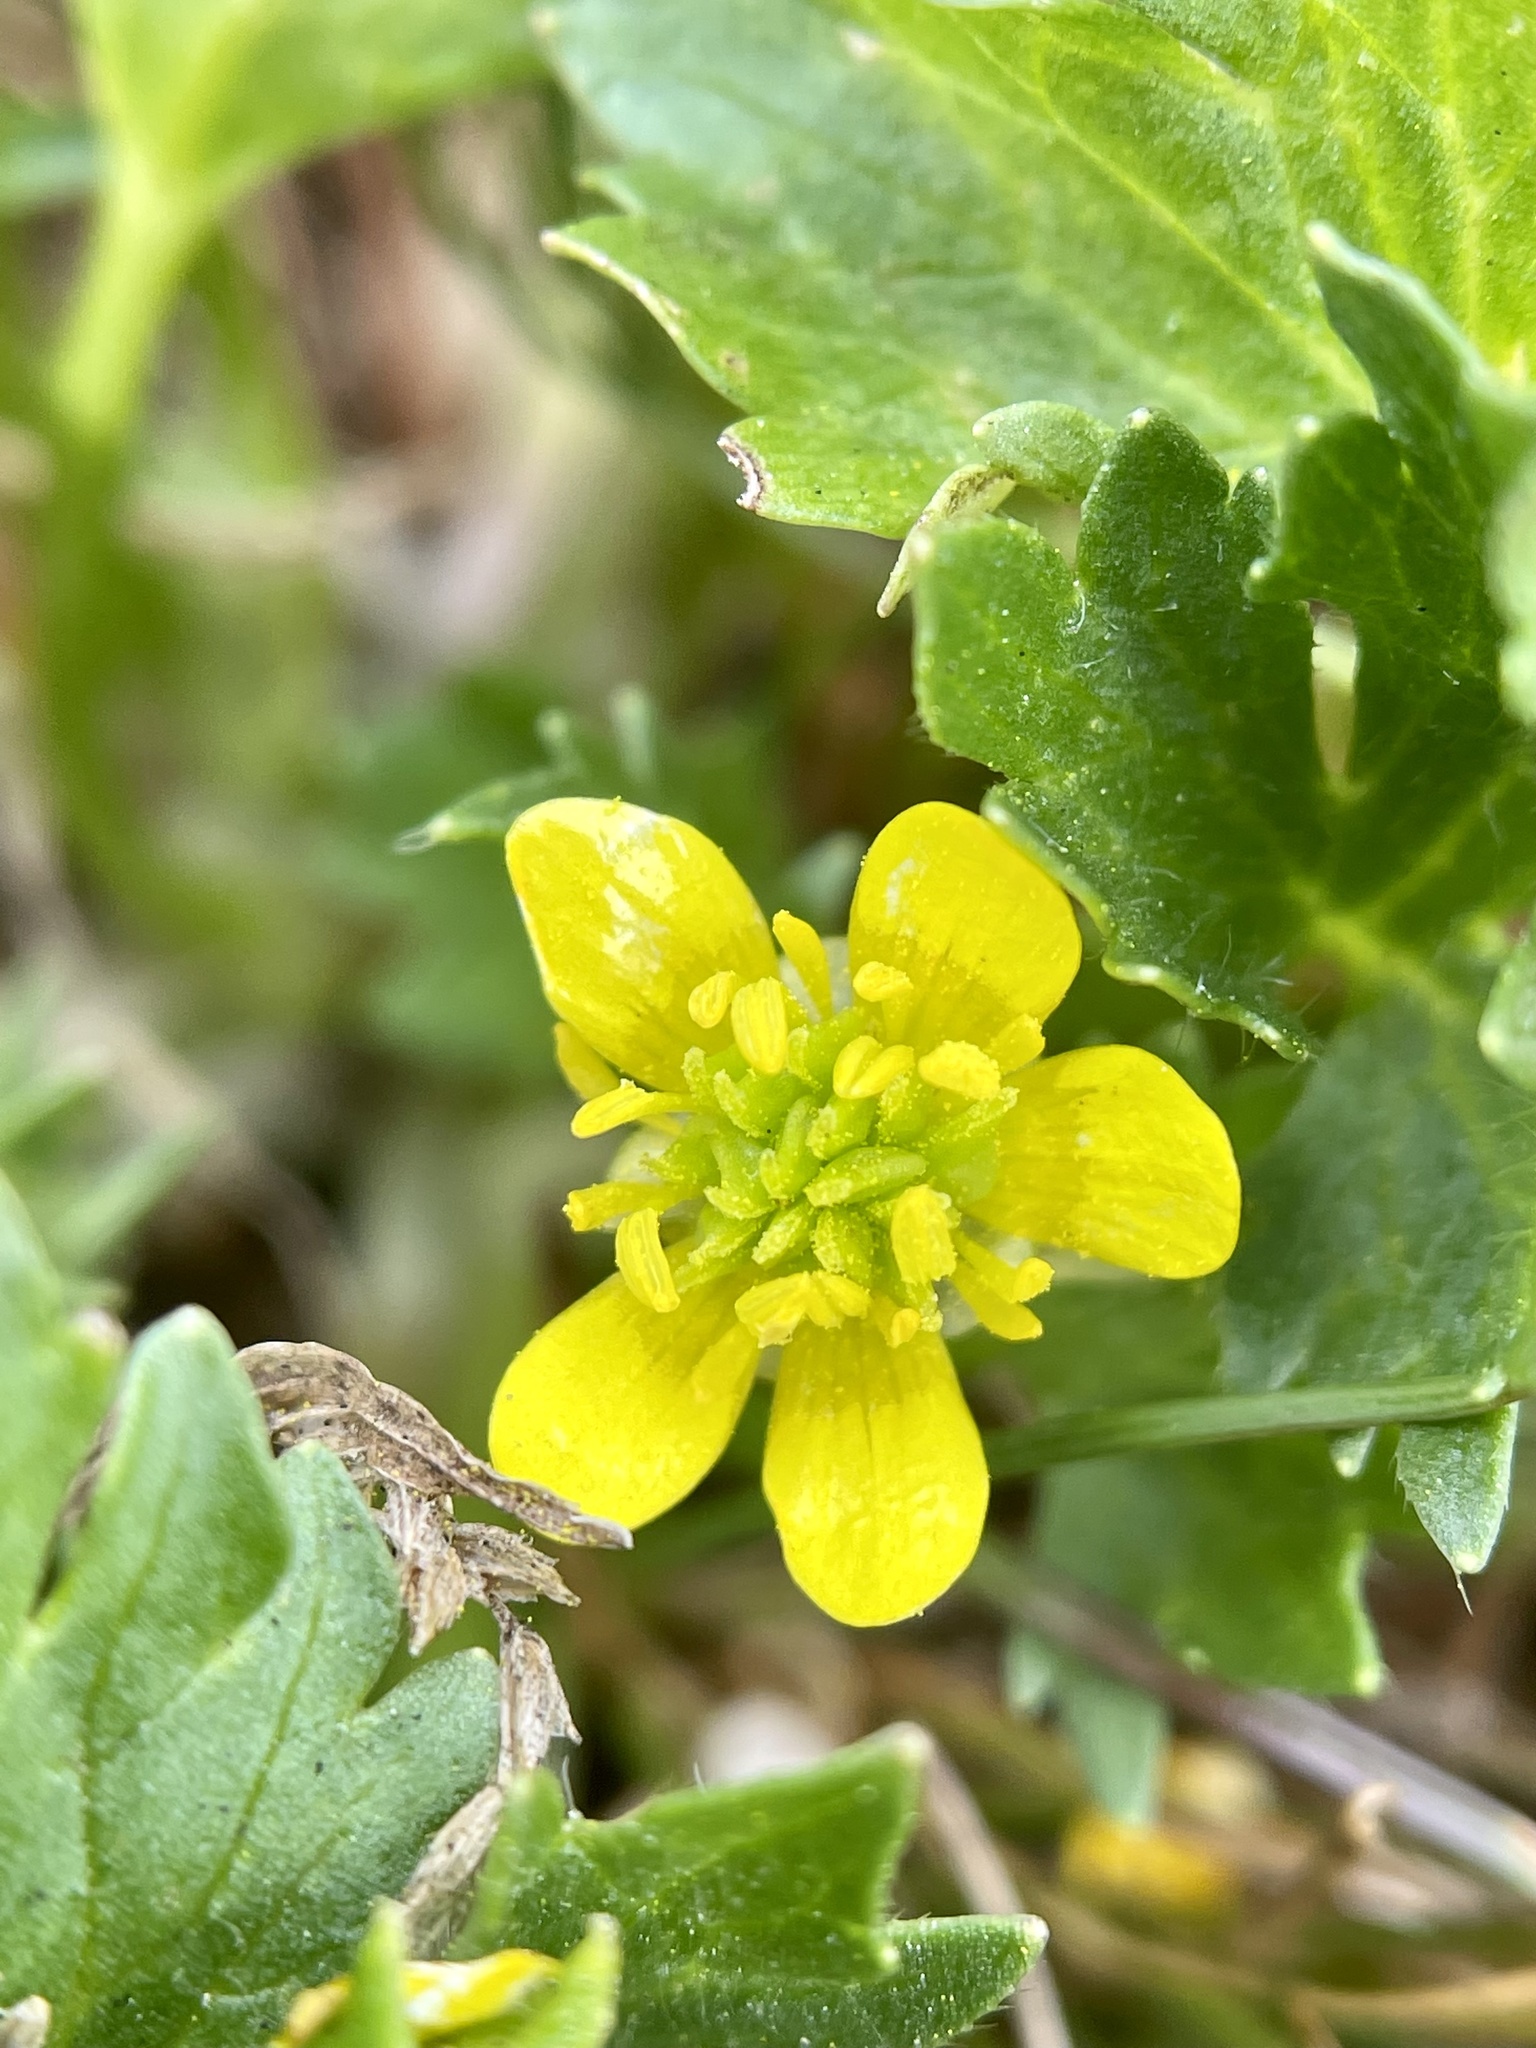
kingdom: Plantae
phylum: Tracheophyta
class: Magnoliopsida
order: Ranunculales
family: Ranunculaceae
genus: Ranunculus
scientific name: Ranunculus muricatus
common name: Rough-fruited buttercup
